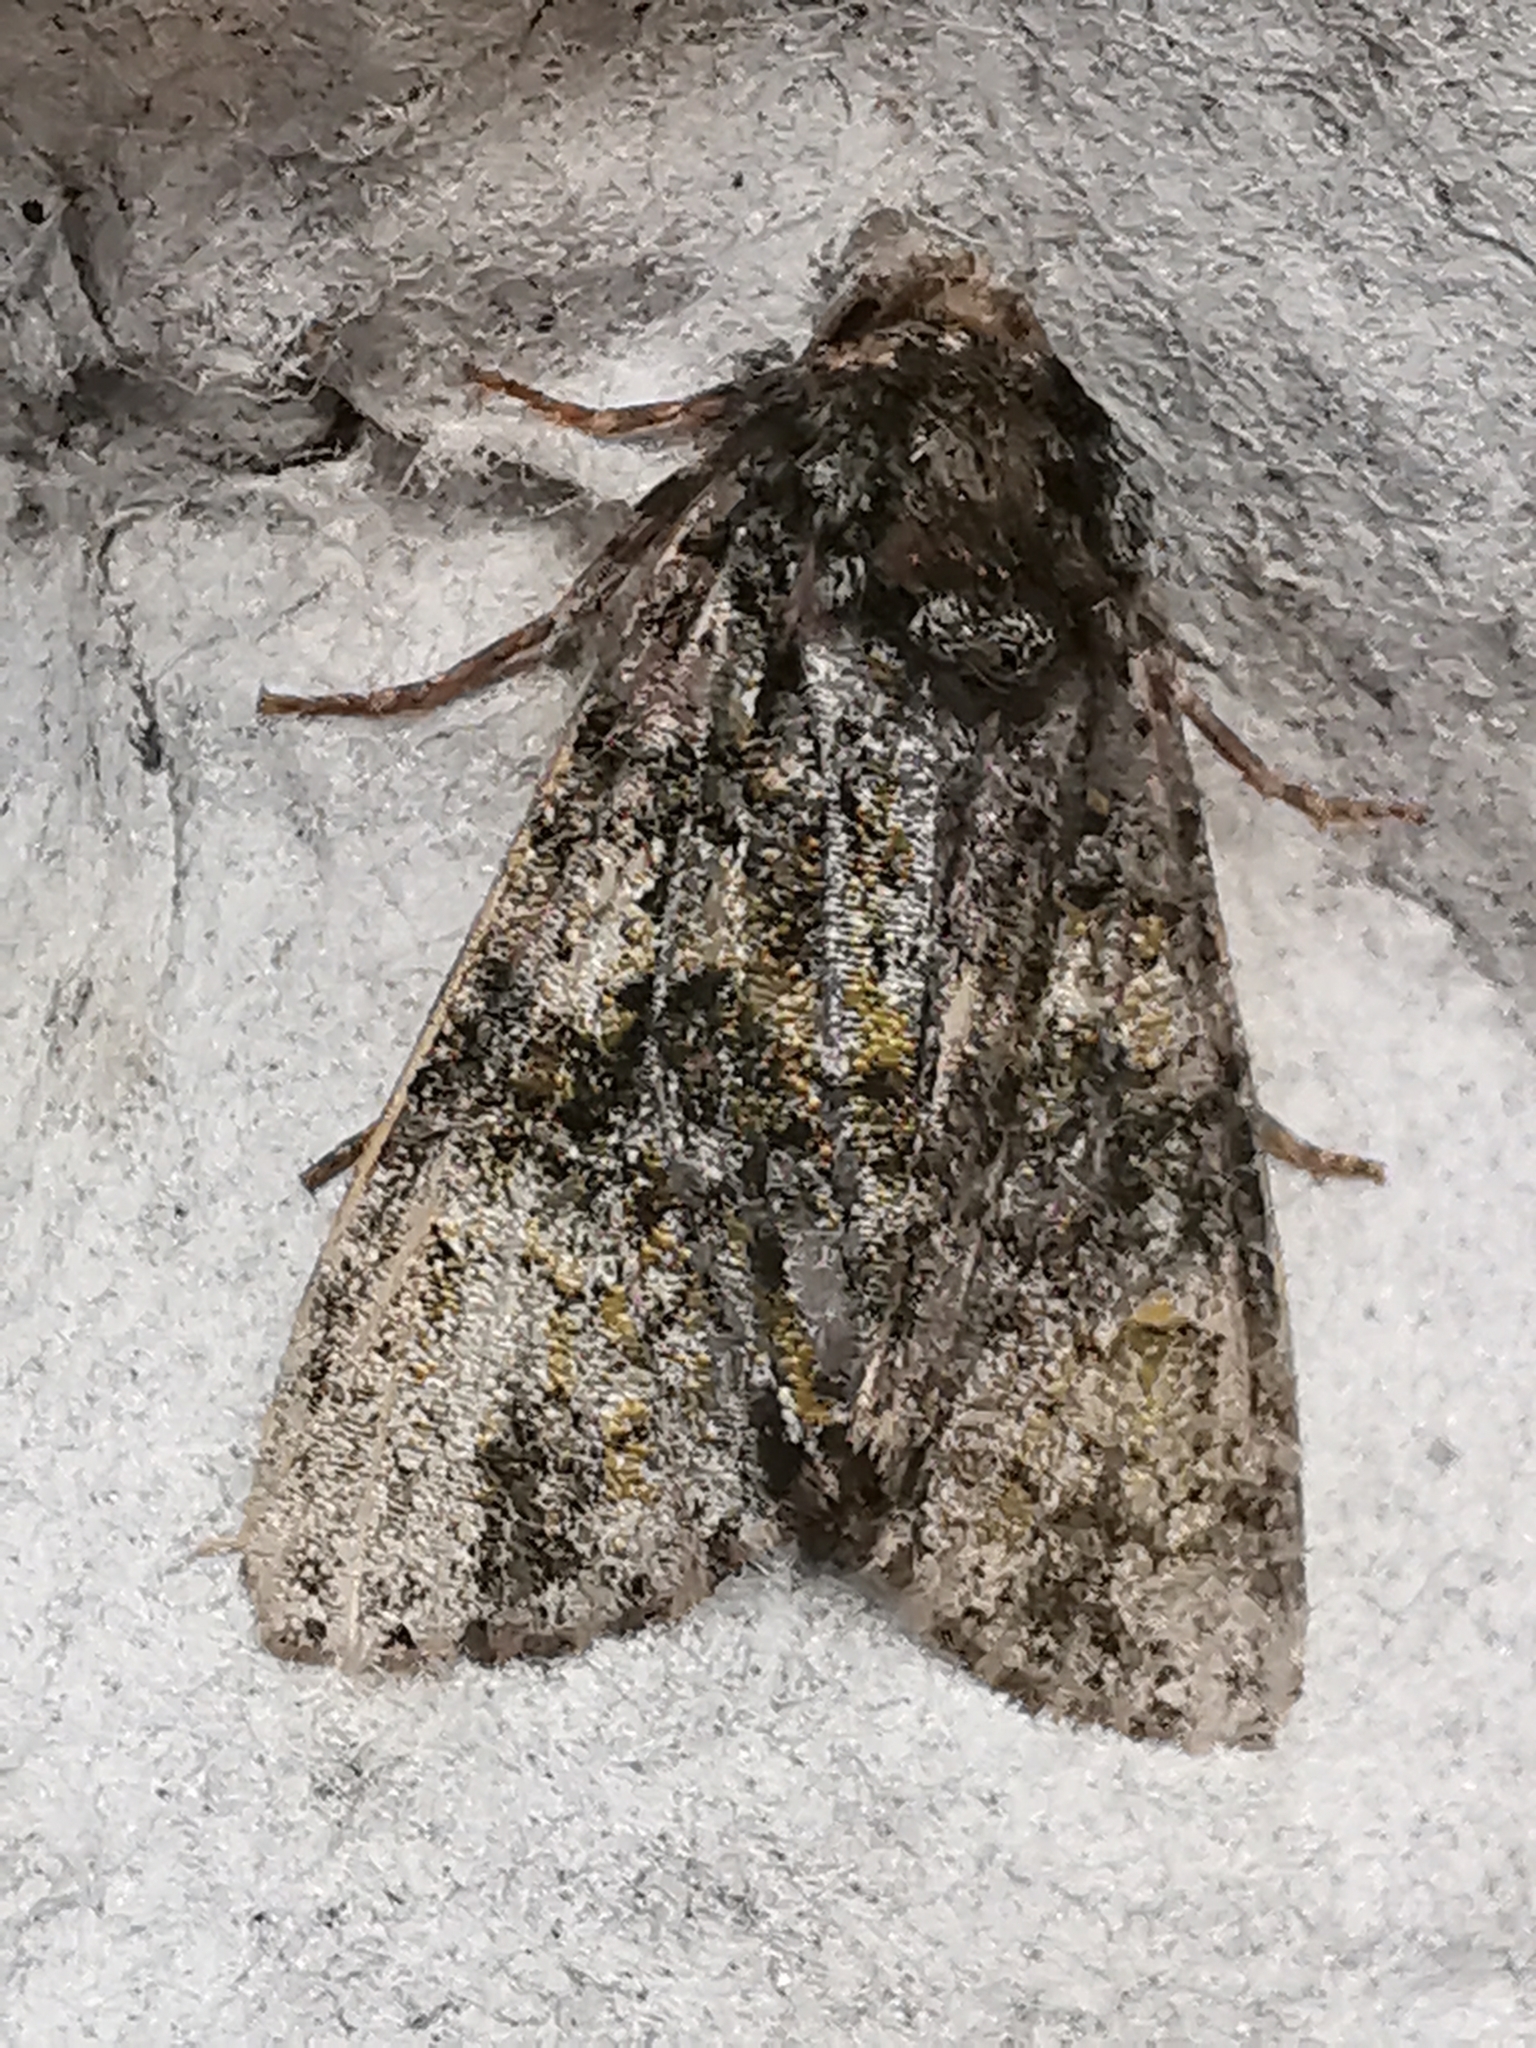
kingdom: Animalia
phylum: Arthropoda
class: Insecta
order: Lepidoptera
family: Noctuidae
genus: Craniophora
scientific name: Craniophora ligustri
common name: Coronet
